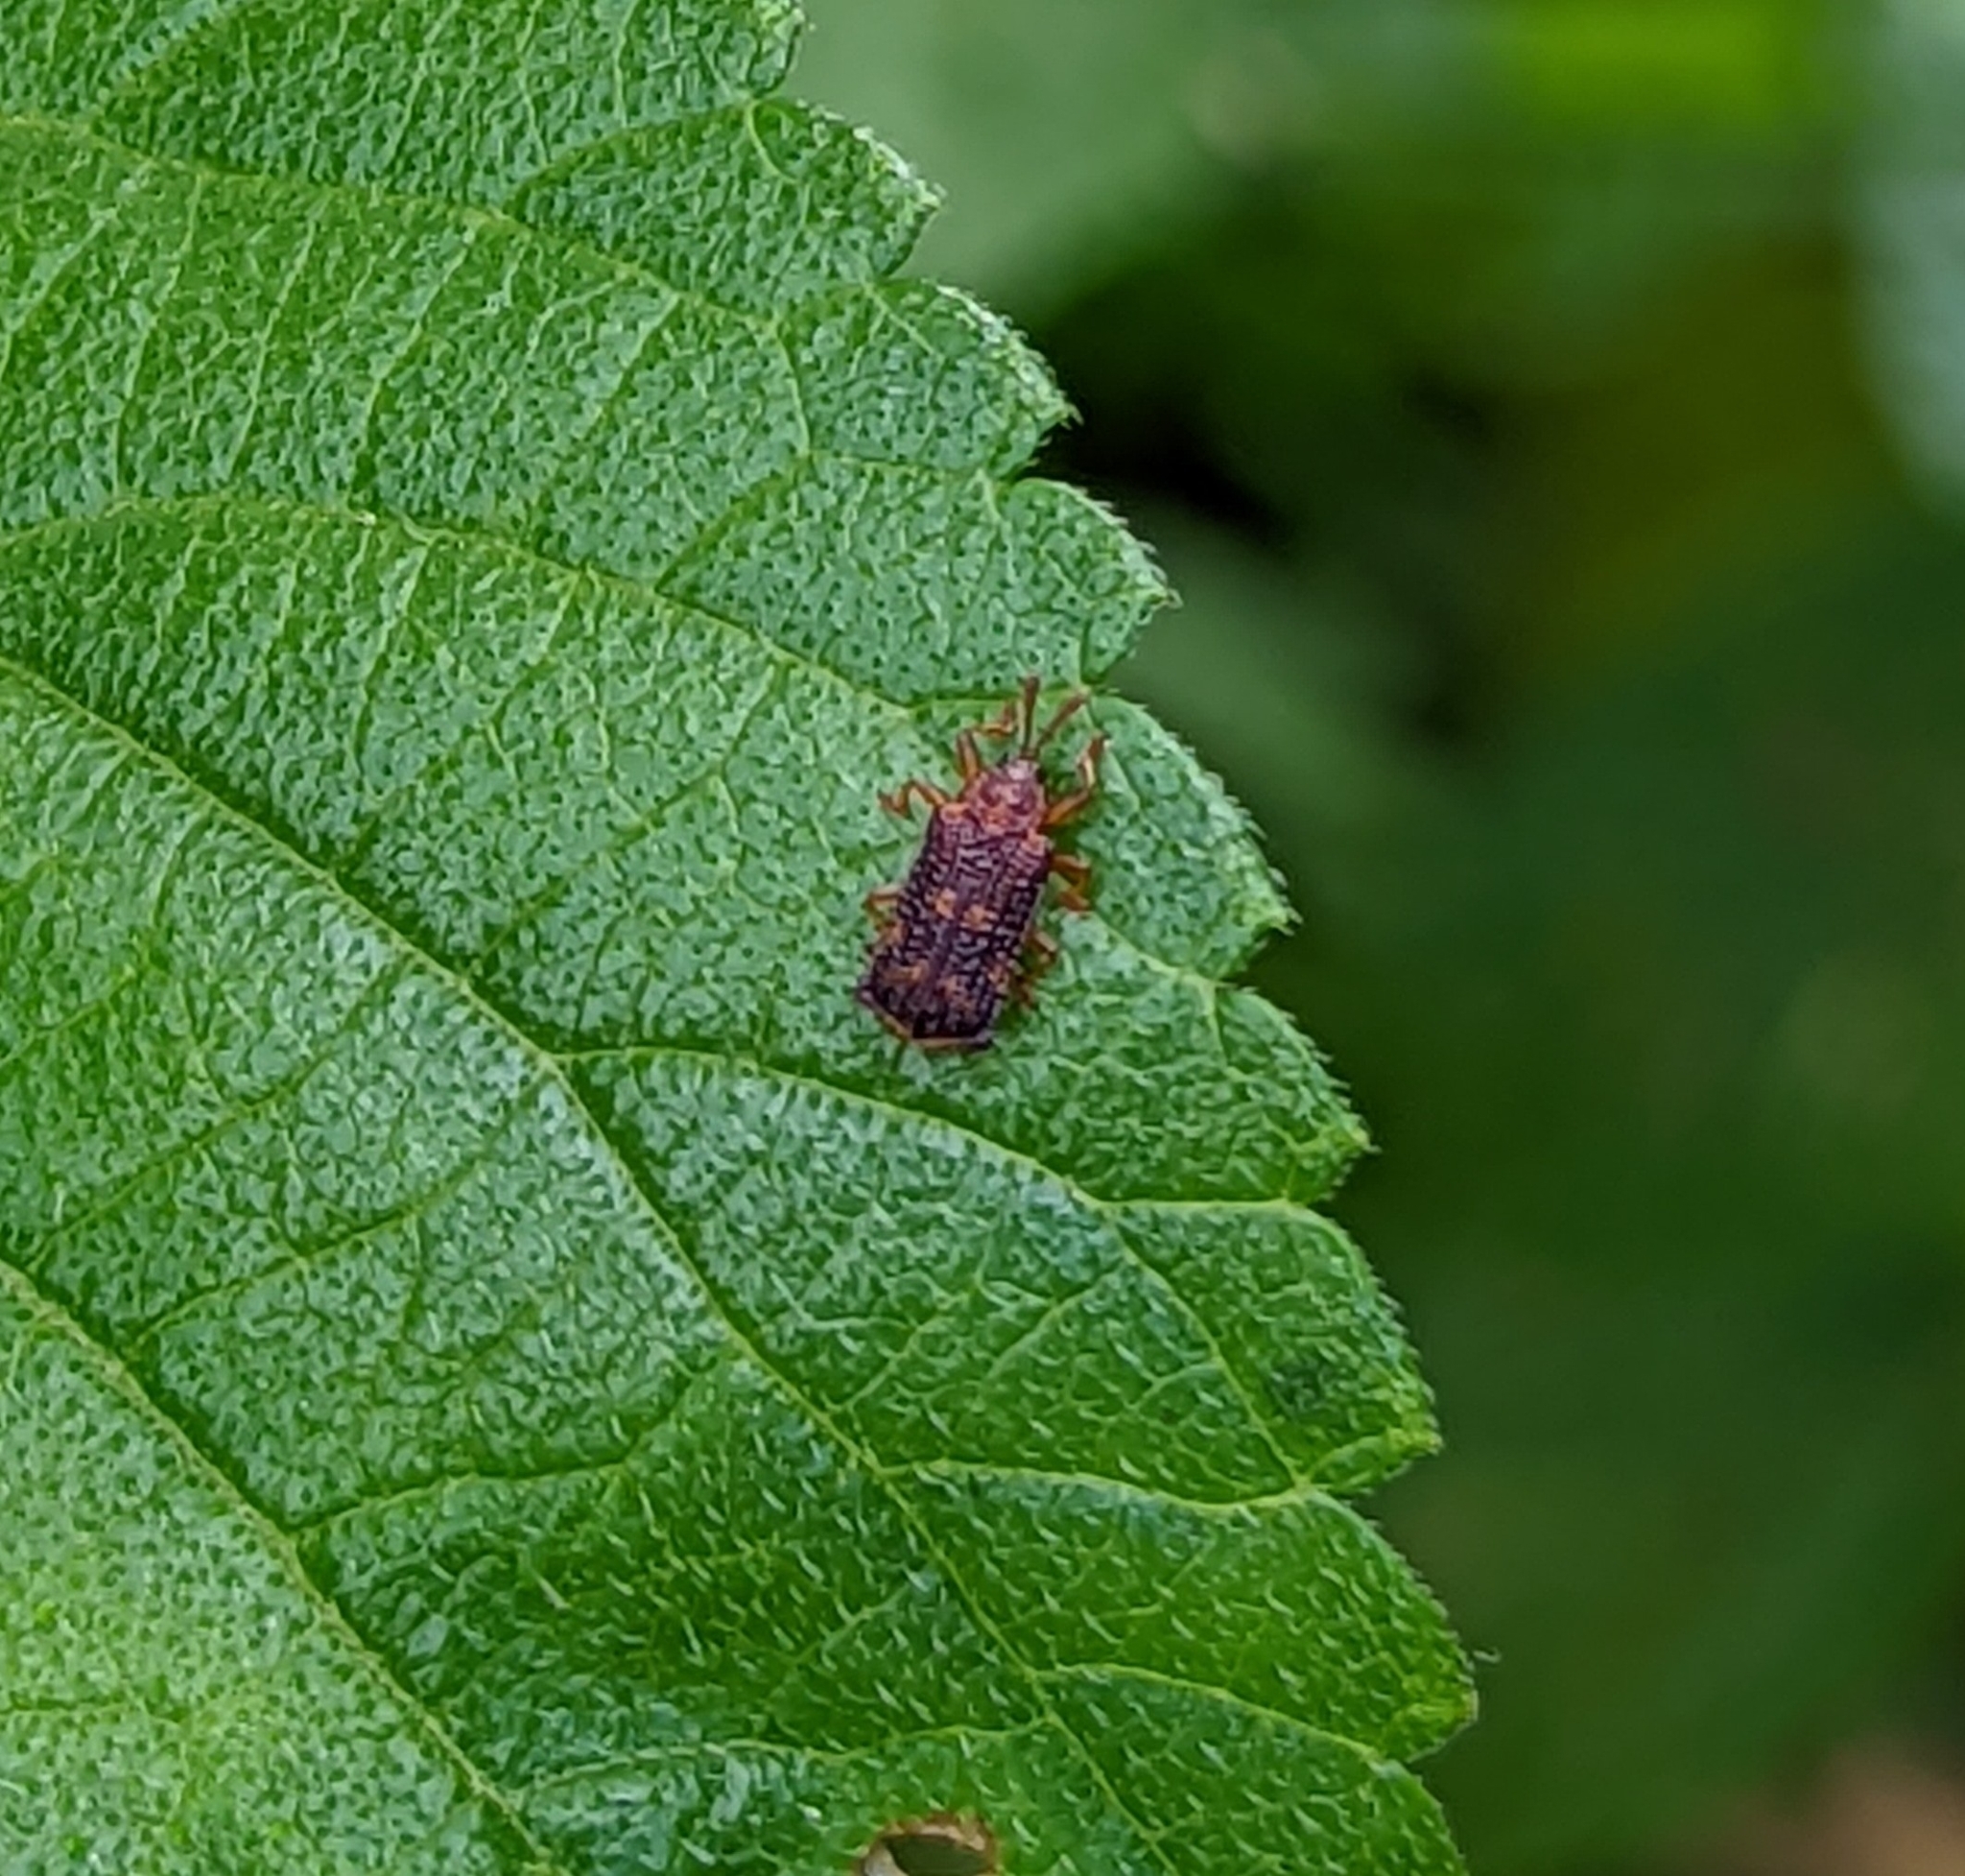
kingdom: Animalia
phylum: Arthropoda
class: Insecta
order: Coleoptera
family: Chrysomelidae
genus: Uroplata
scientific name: Uroplata girardi
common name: Lantana leafminer
